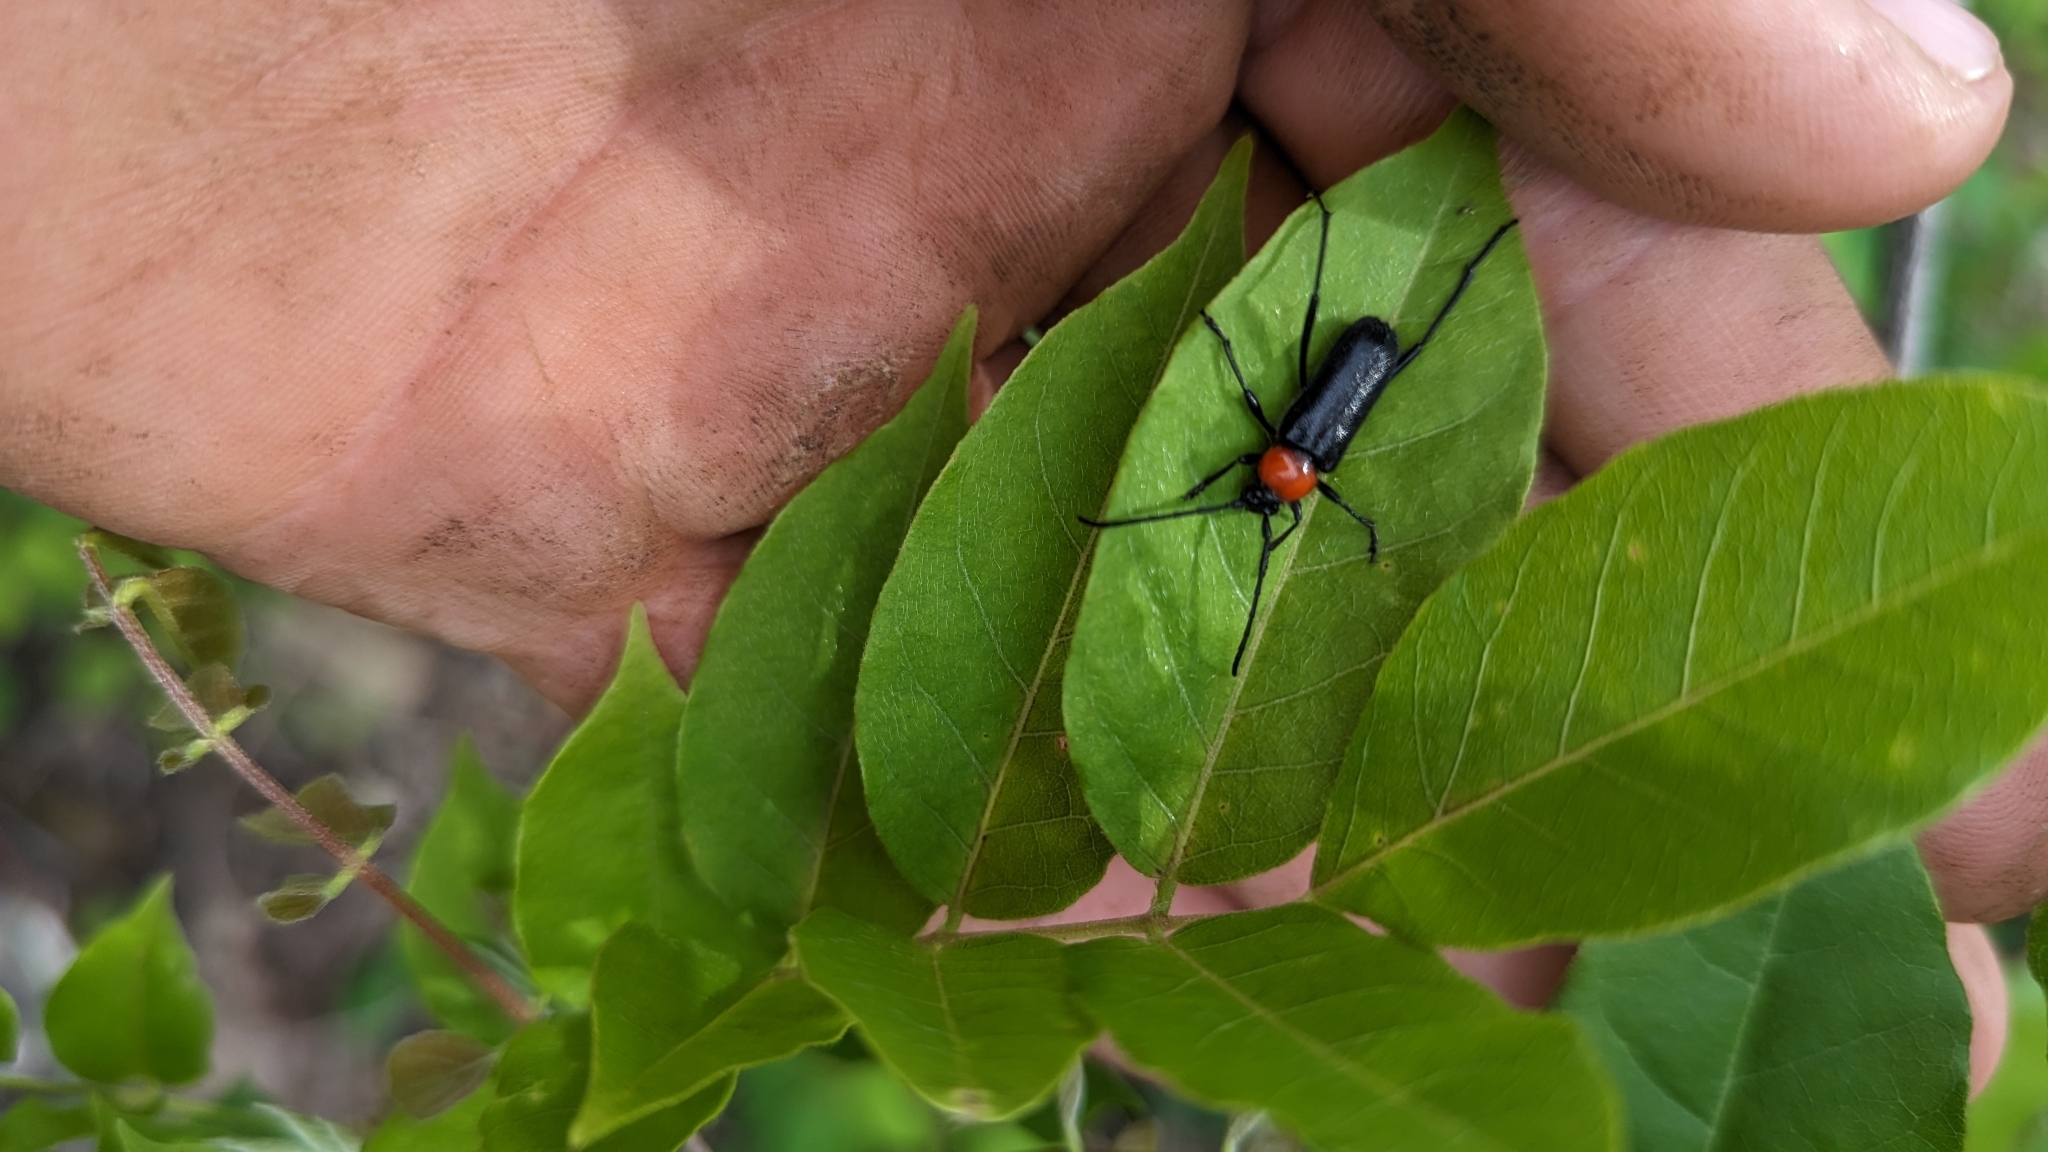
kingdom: Animalia
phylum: Arthropoda
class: Insecta
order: Coleoptera
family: Cerambycidae
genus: Batyle
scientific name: Batyle ignicollis
